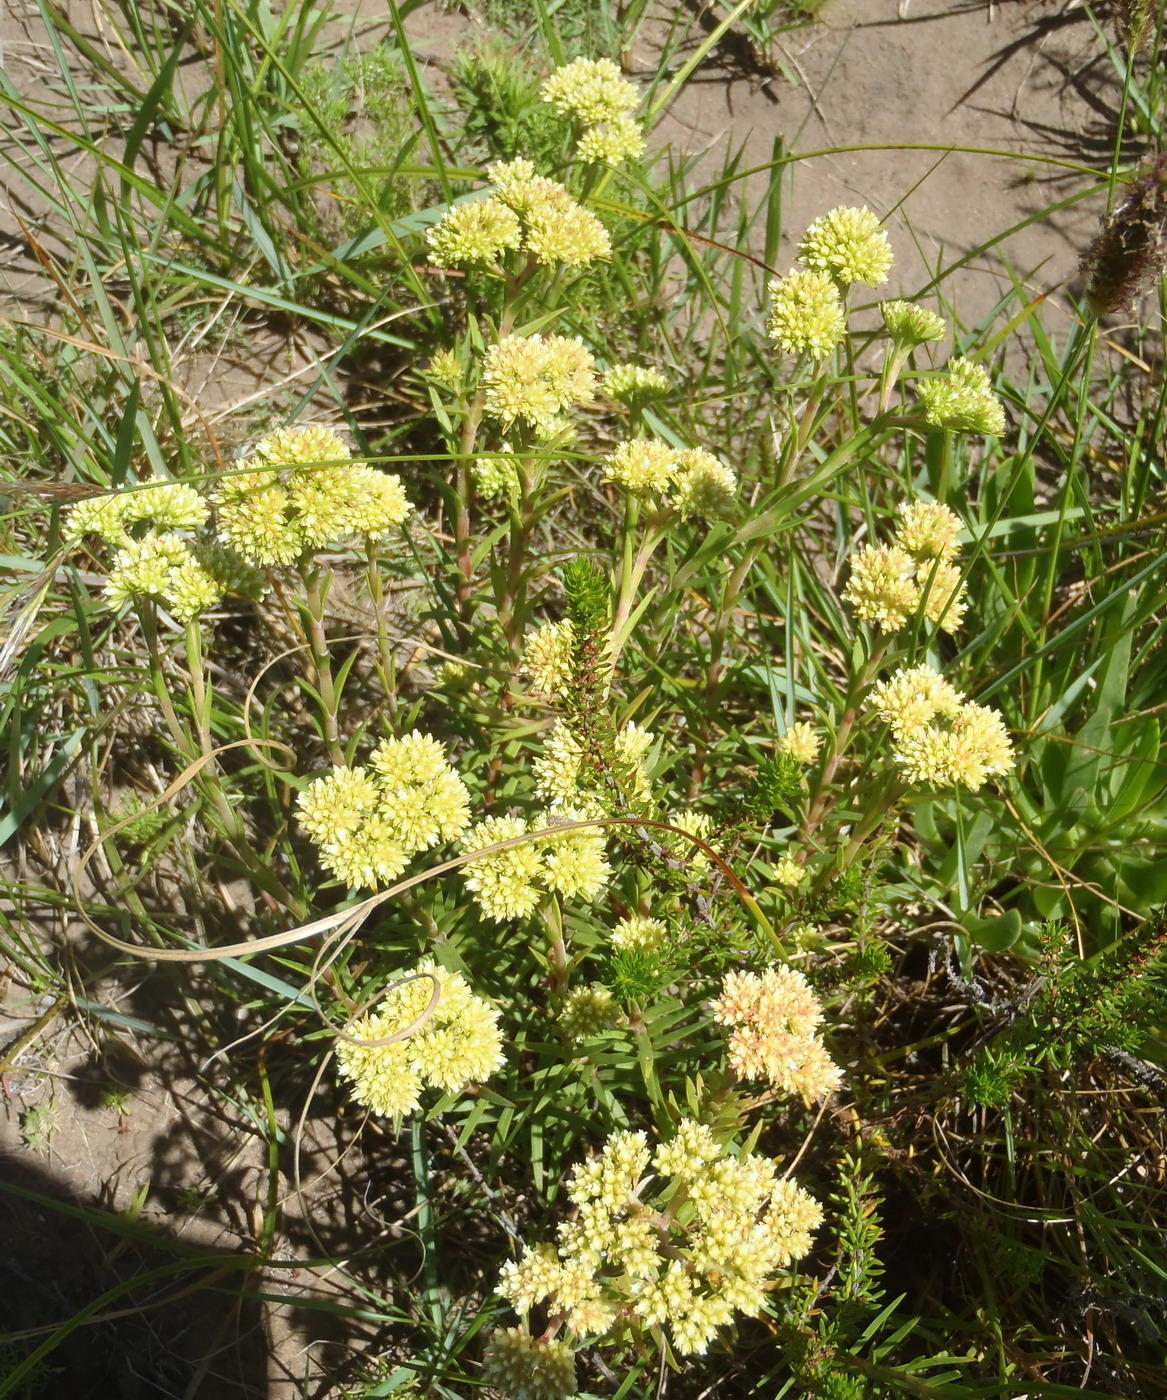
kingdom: Plantae
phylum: Tracheophyta
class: Magnoliopsida
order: Saxifragales
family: Crassulaceae
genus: Crassula
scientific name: Crassula subulata
